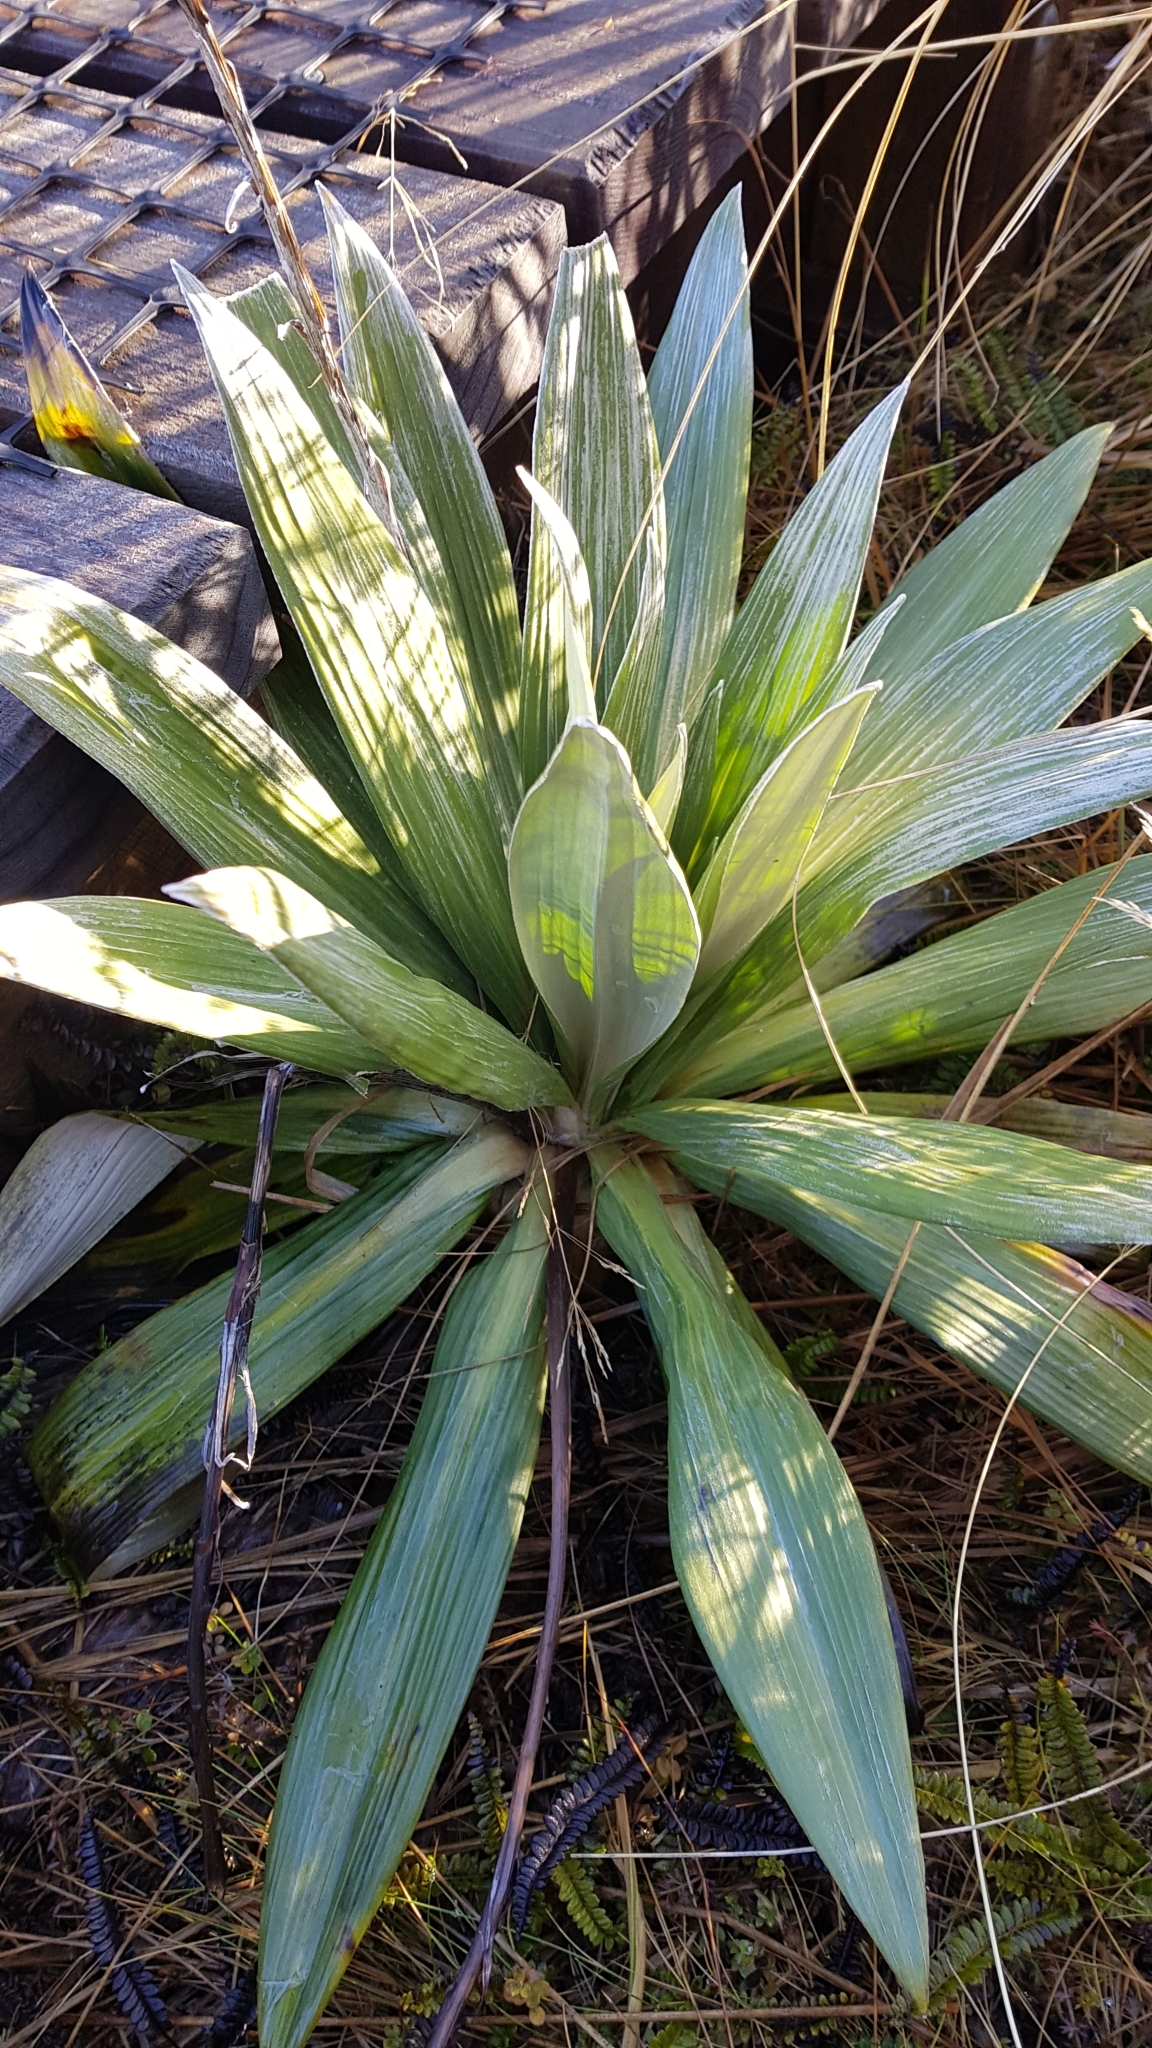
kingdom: Plantae
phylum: Tracheophyta
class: Magnoliopsida
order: Asterales
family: Asteraceae
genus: Celmisia
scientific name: Celmisia semicordata
